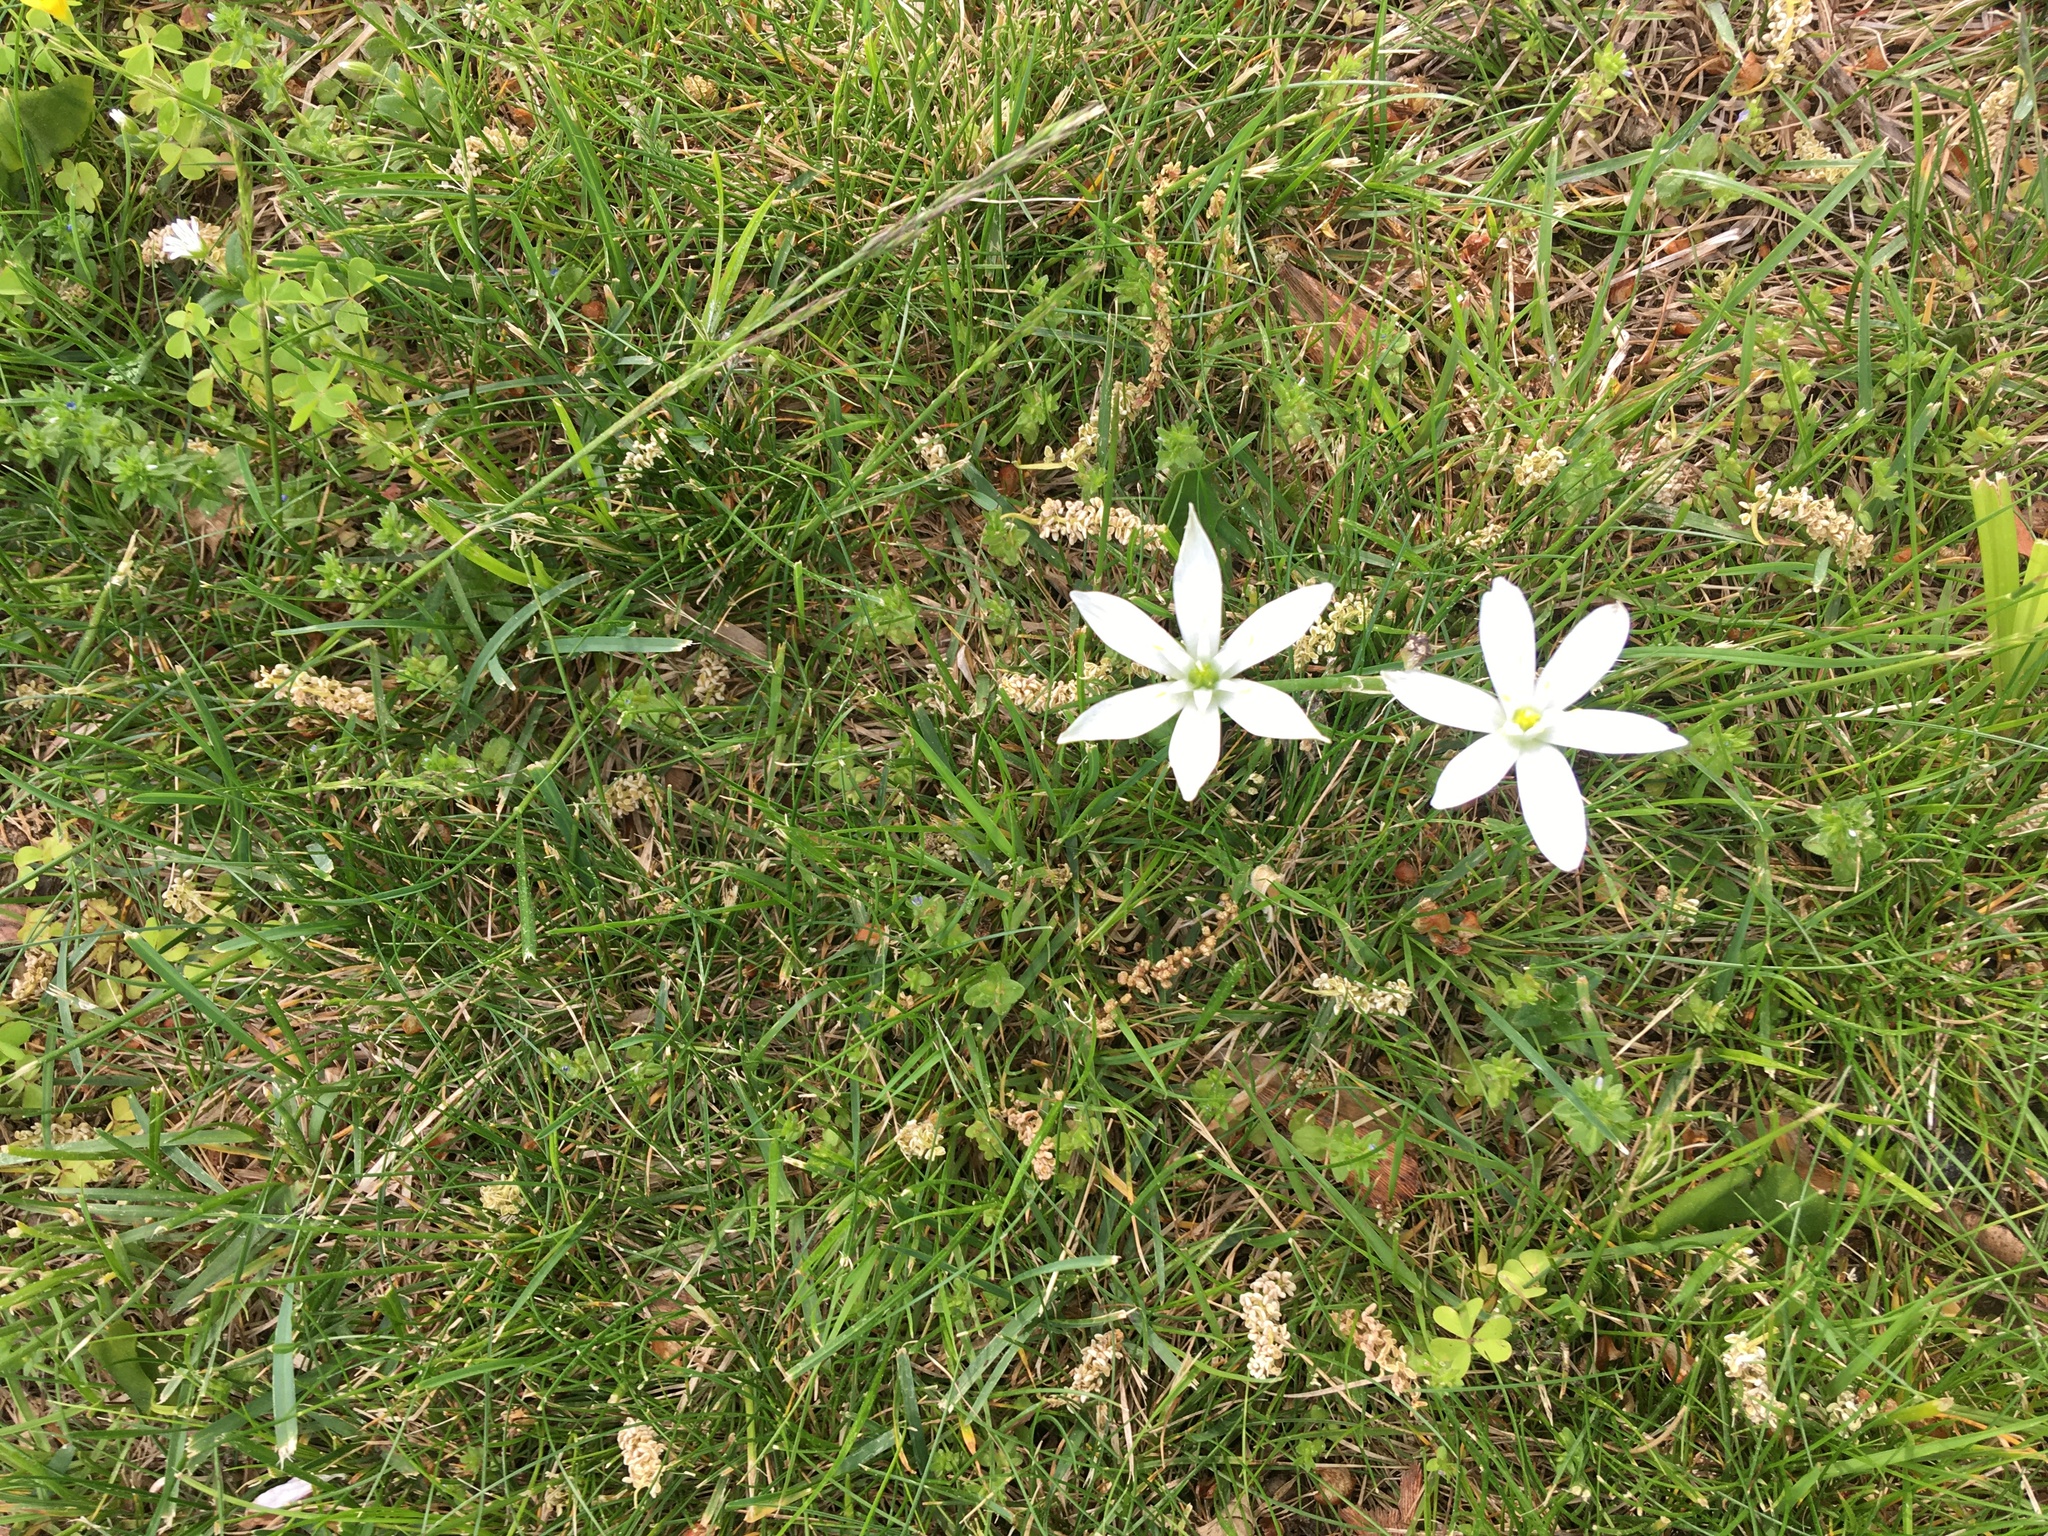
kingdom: Plantae
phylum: Tracheophyta
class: Liliopsida
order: Asparagales
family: Asparagaceae
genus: Ornithogalum
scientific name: Ornithogalum umbellatum
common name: Garden star-of-bethlehem
